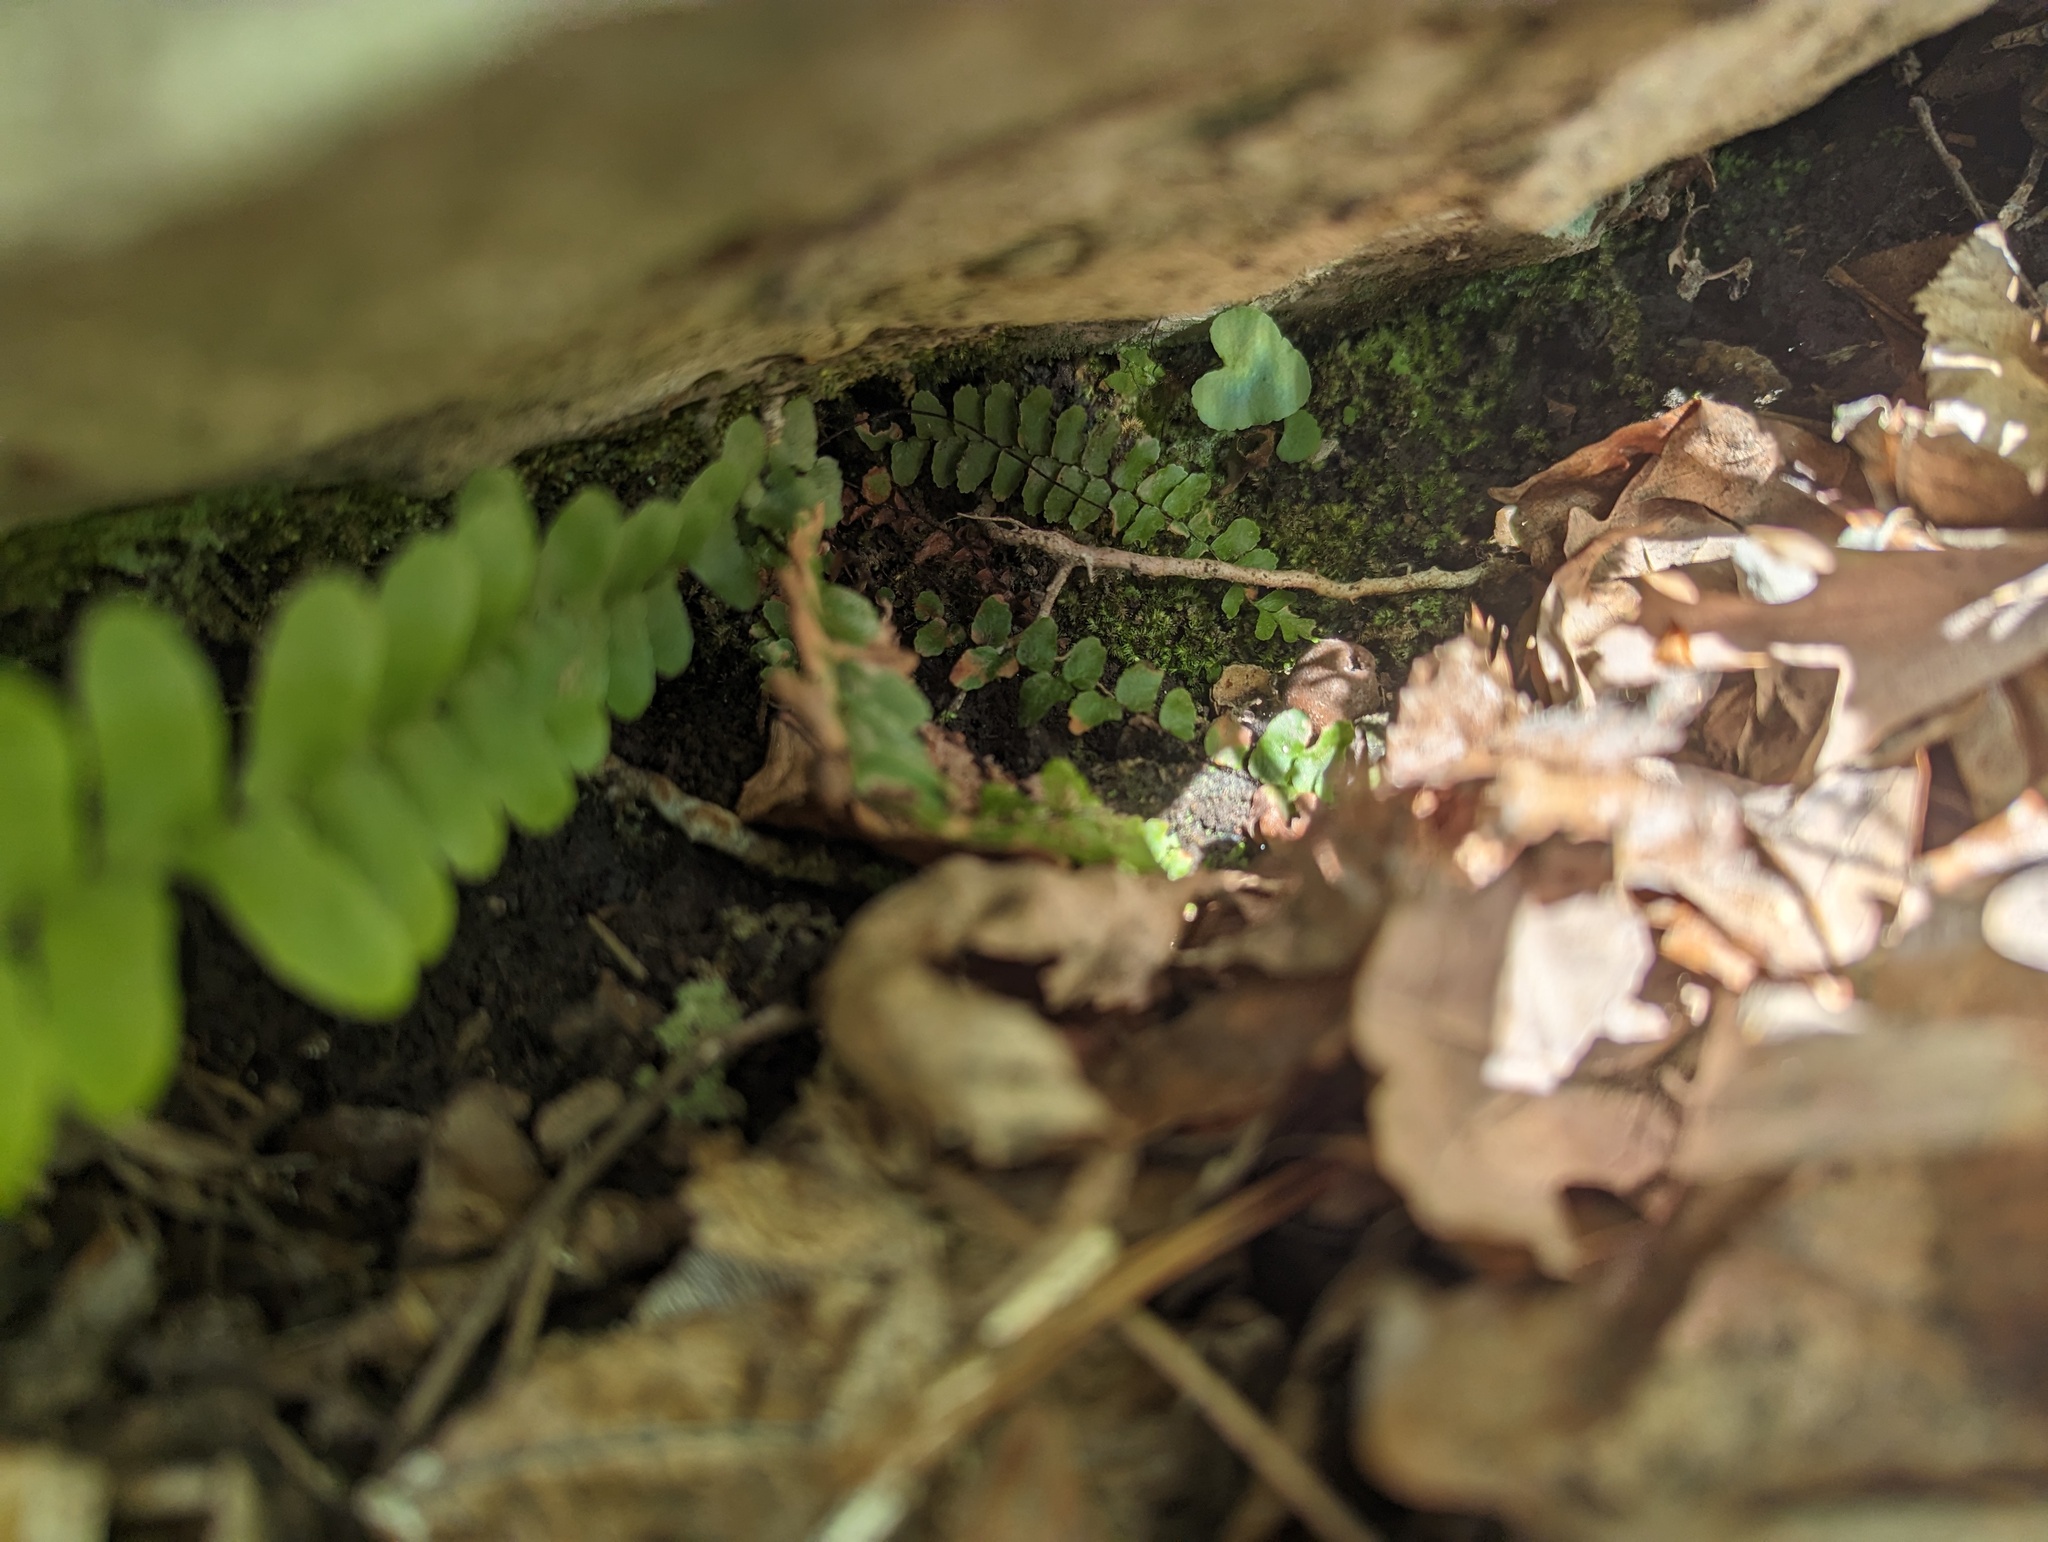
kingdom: Plantae
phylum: Tracheophyta
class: Polypodiopsida
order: Polypodiales
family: Aspleniaceae
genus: Asplenium
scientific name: Asplenium platyneuron
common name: Ebony spleenwort
